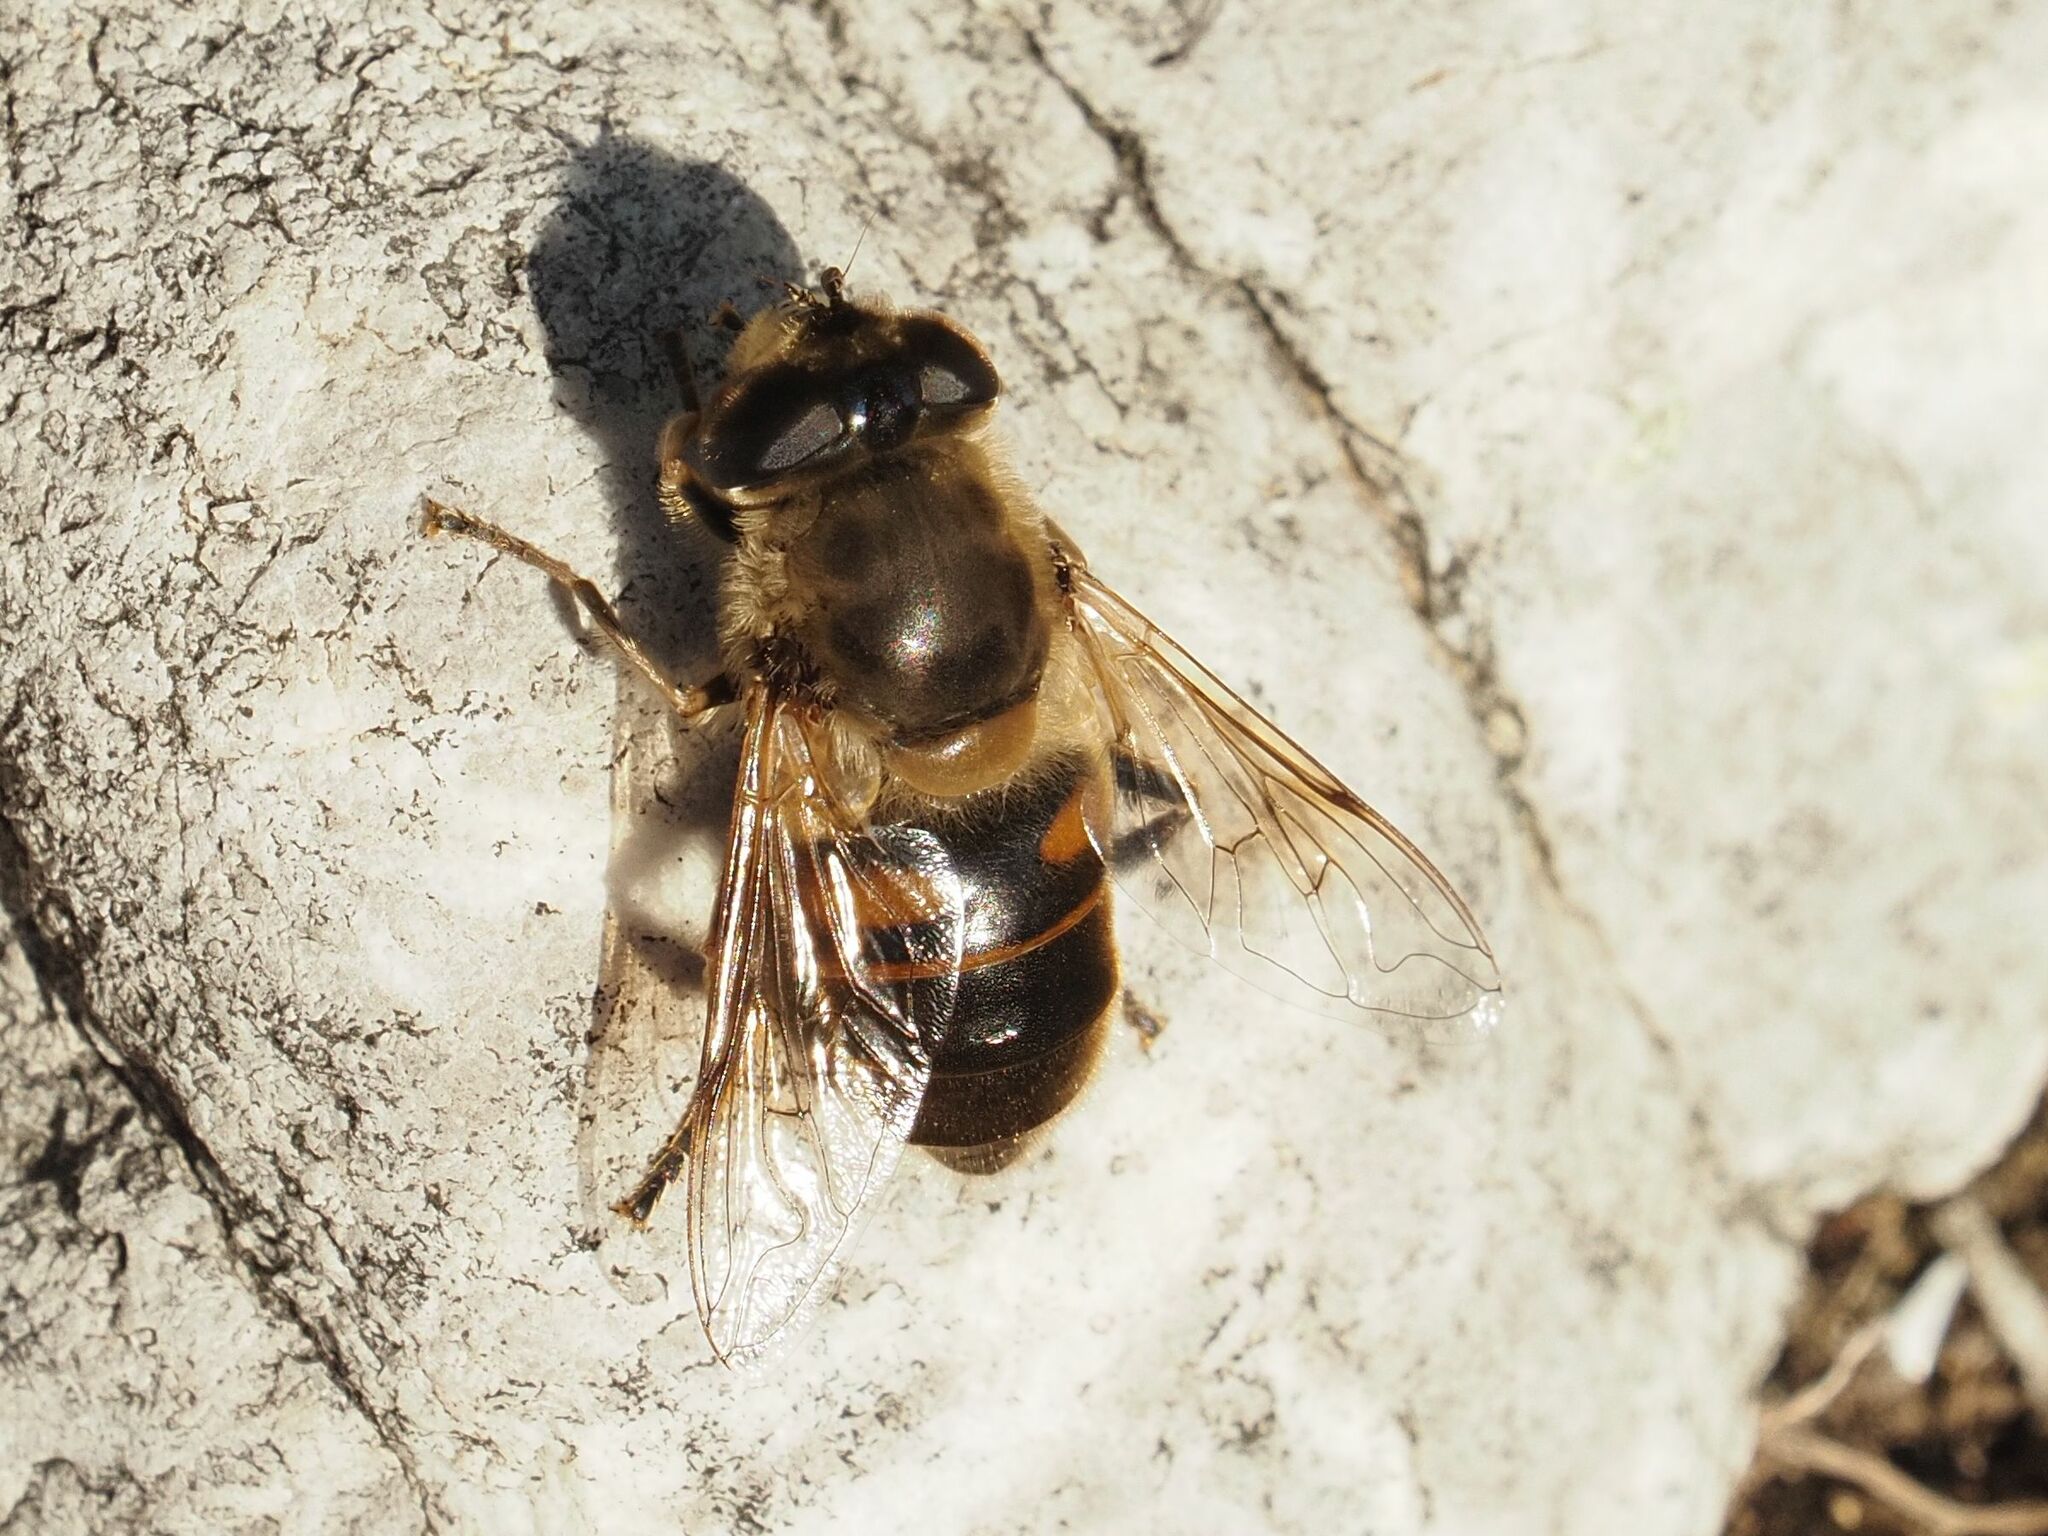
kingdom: Animalia
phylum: Arthropoda
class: Insecta
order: Diptera
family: Syrphidae
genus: Eristalis
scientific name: Eristalis tenax
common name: Drone fly
